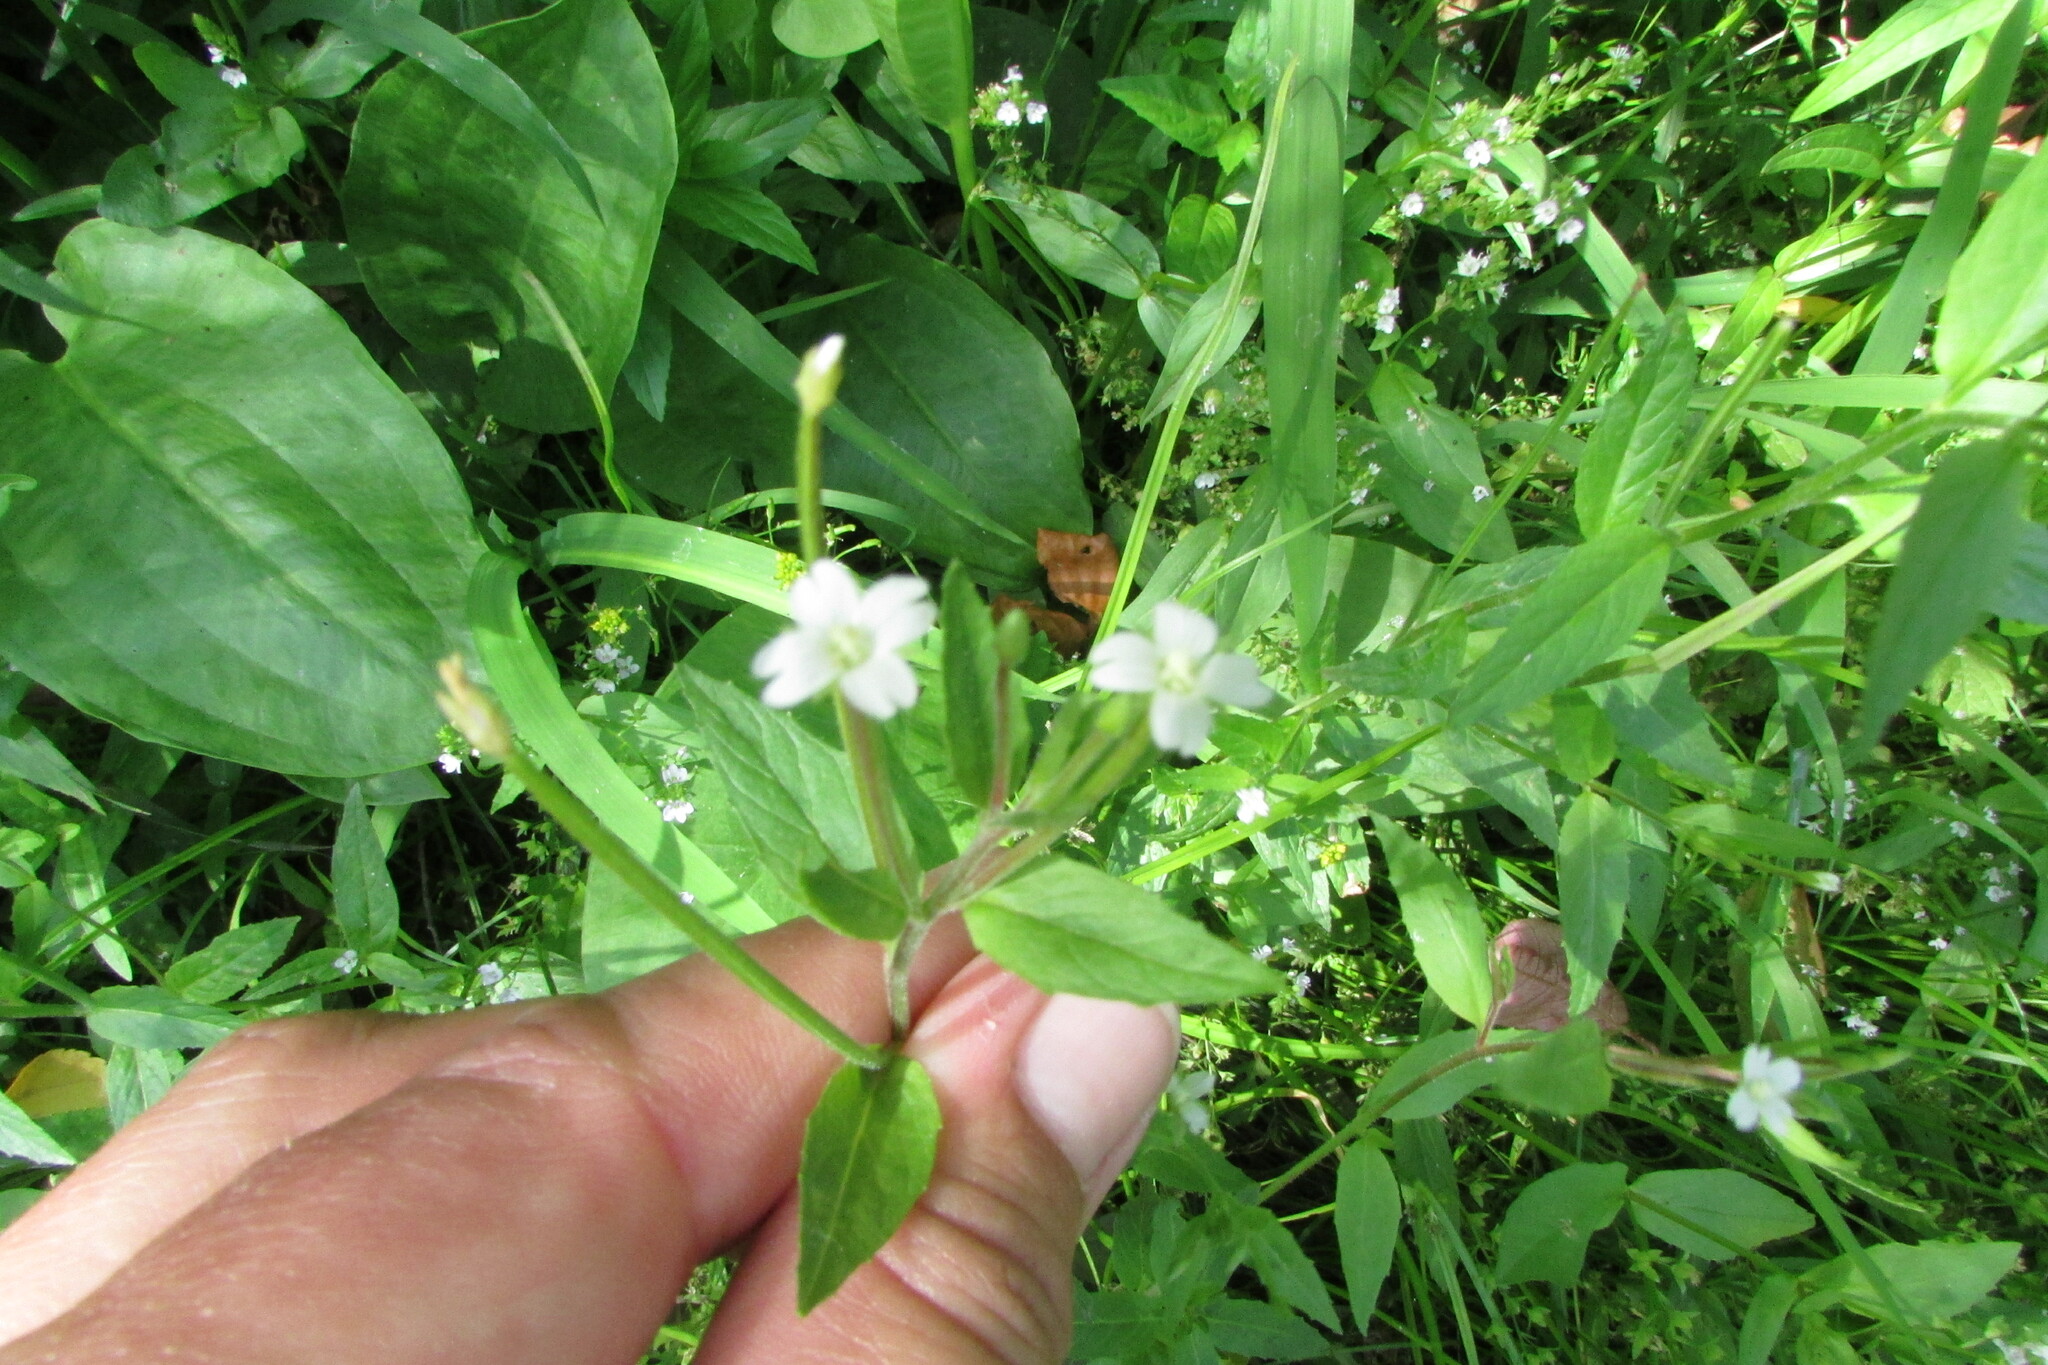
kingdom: Plantae
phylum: Tracheophyta
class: Magnoliopsida
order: Myrtales
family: Onagraceae
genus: Epilobium
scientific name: Epilobium pseudorubescens
